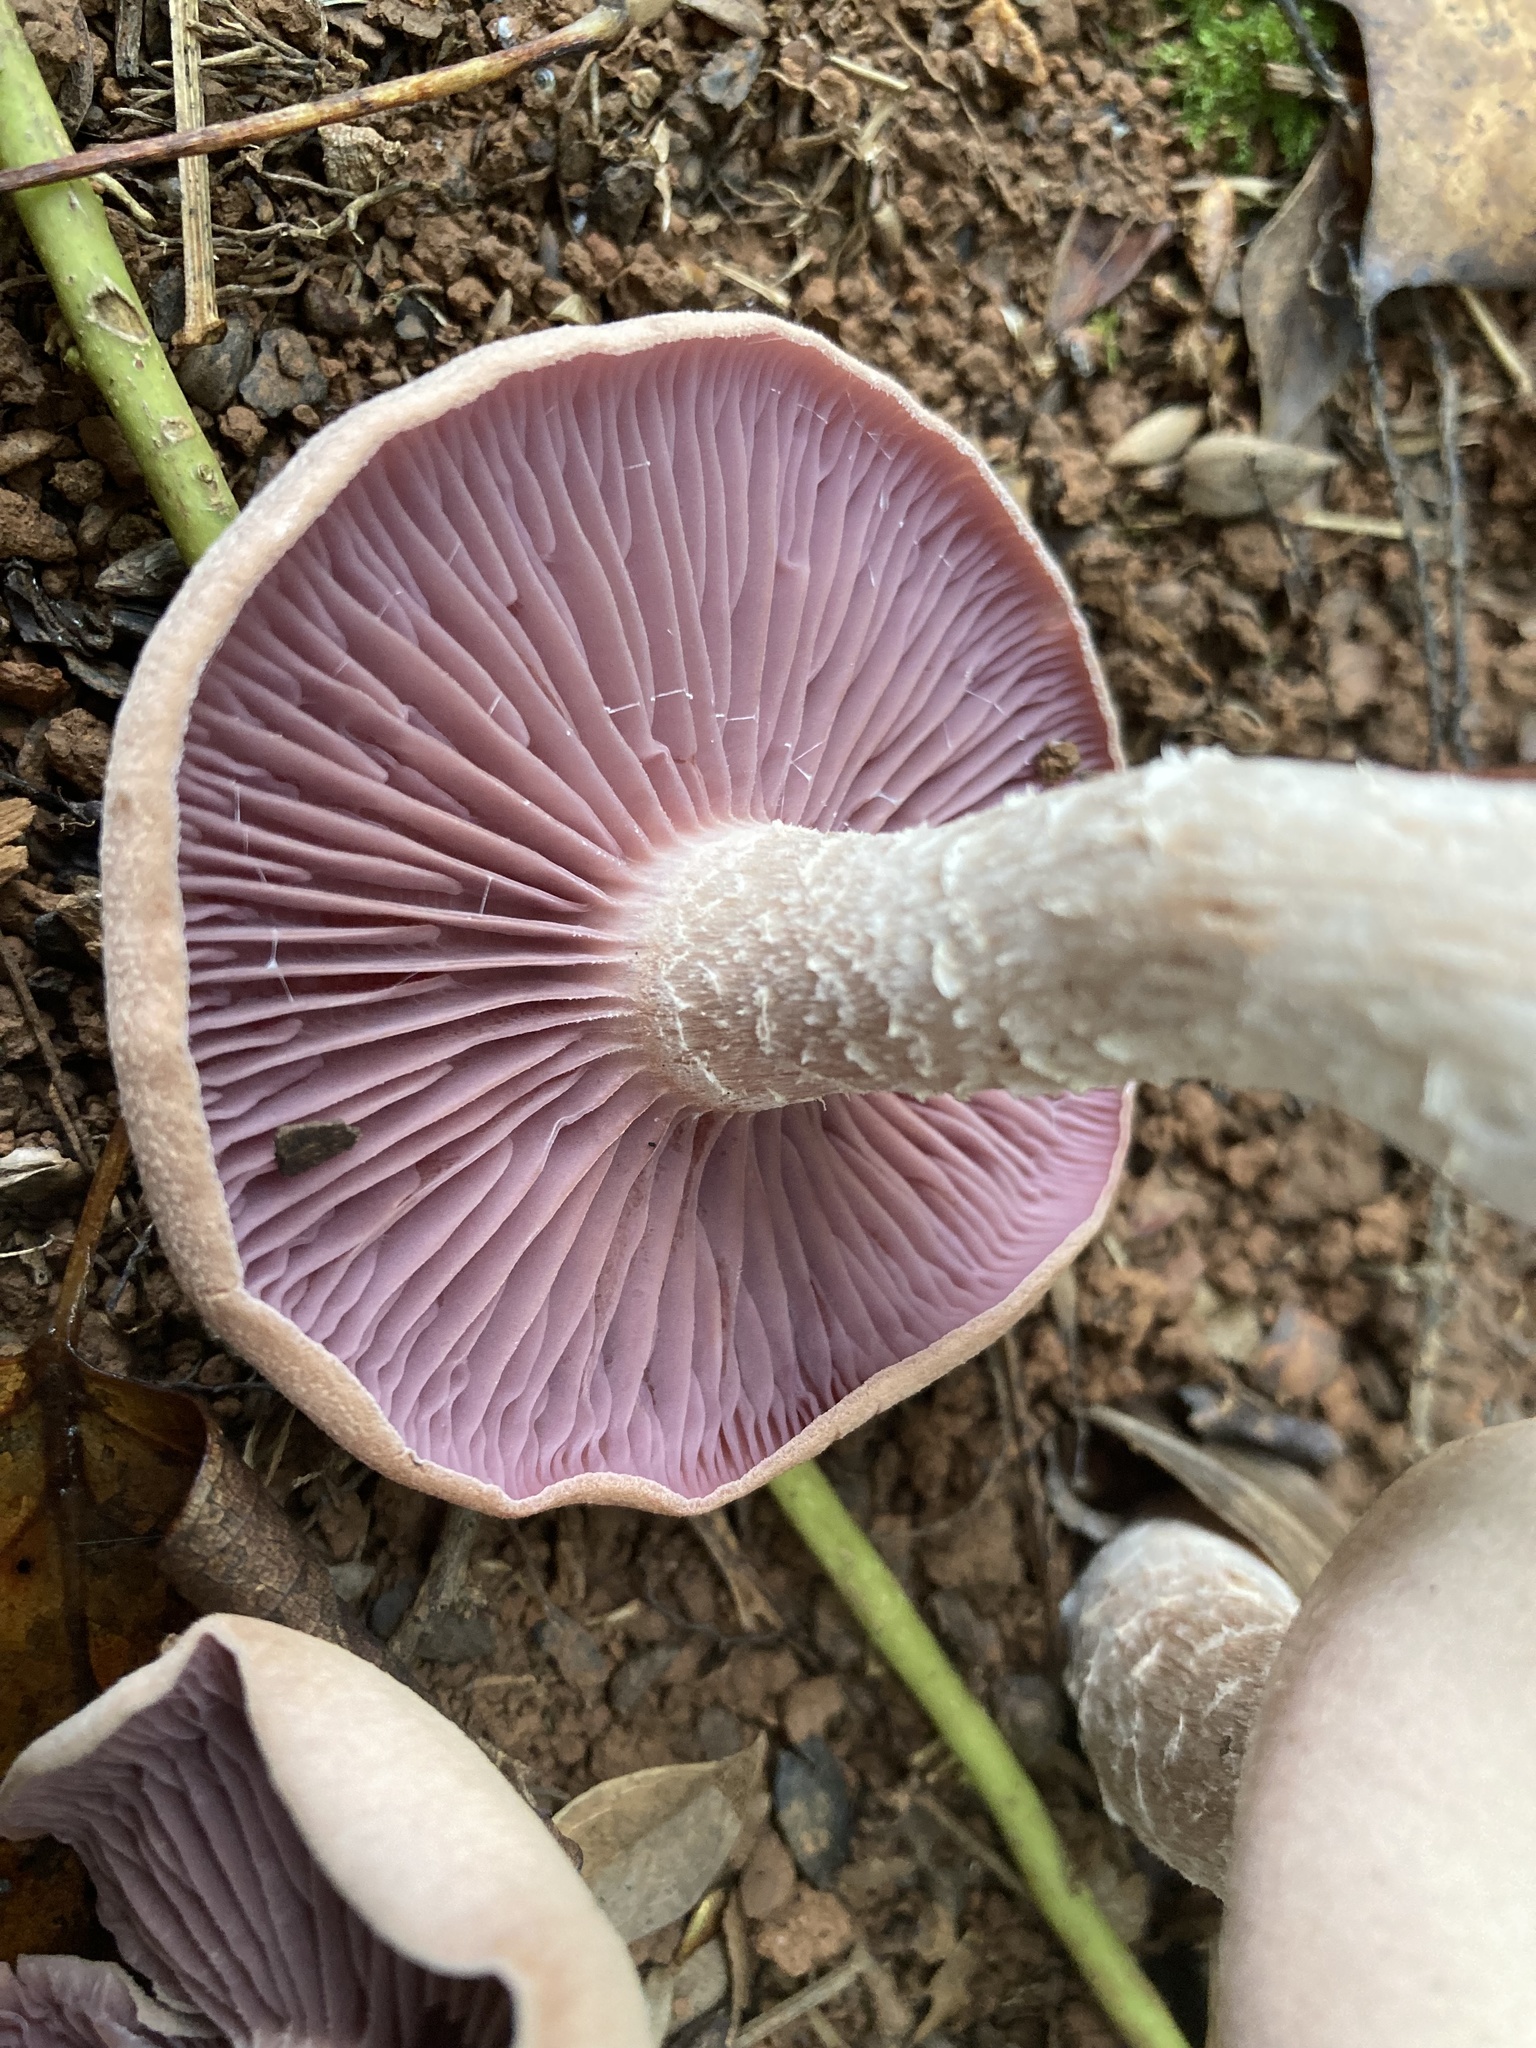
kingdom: Fungi
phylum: Basidiomycota
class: Agaricomycetes
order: Agaricales
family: Hydnangiaceae
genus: Laccaria
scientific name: Laccaria ochropurpurea
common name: Purple laccaria
